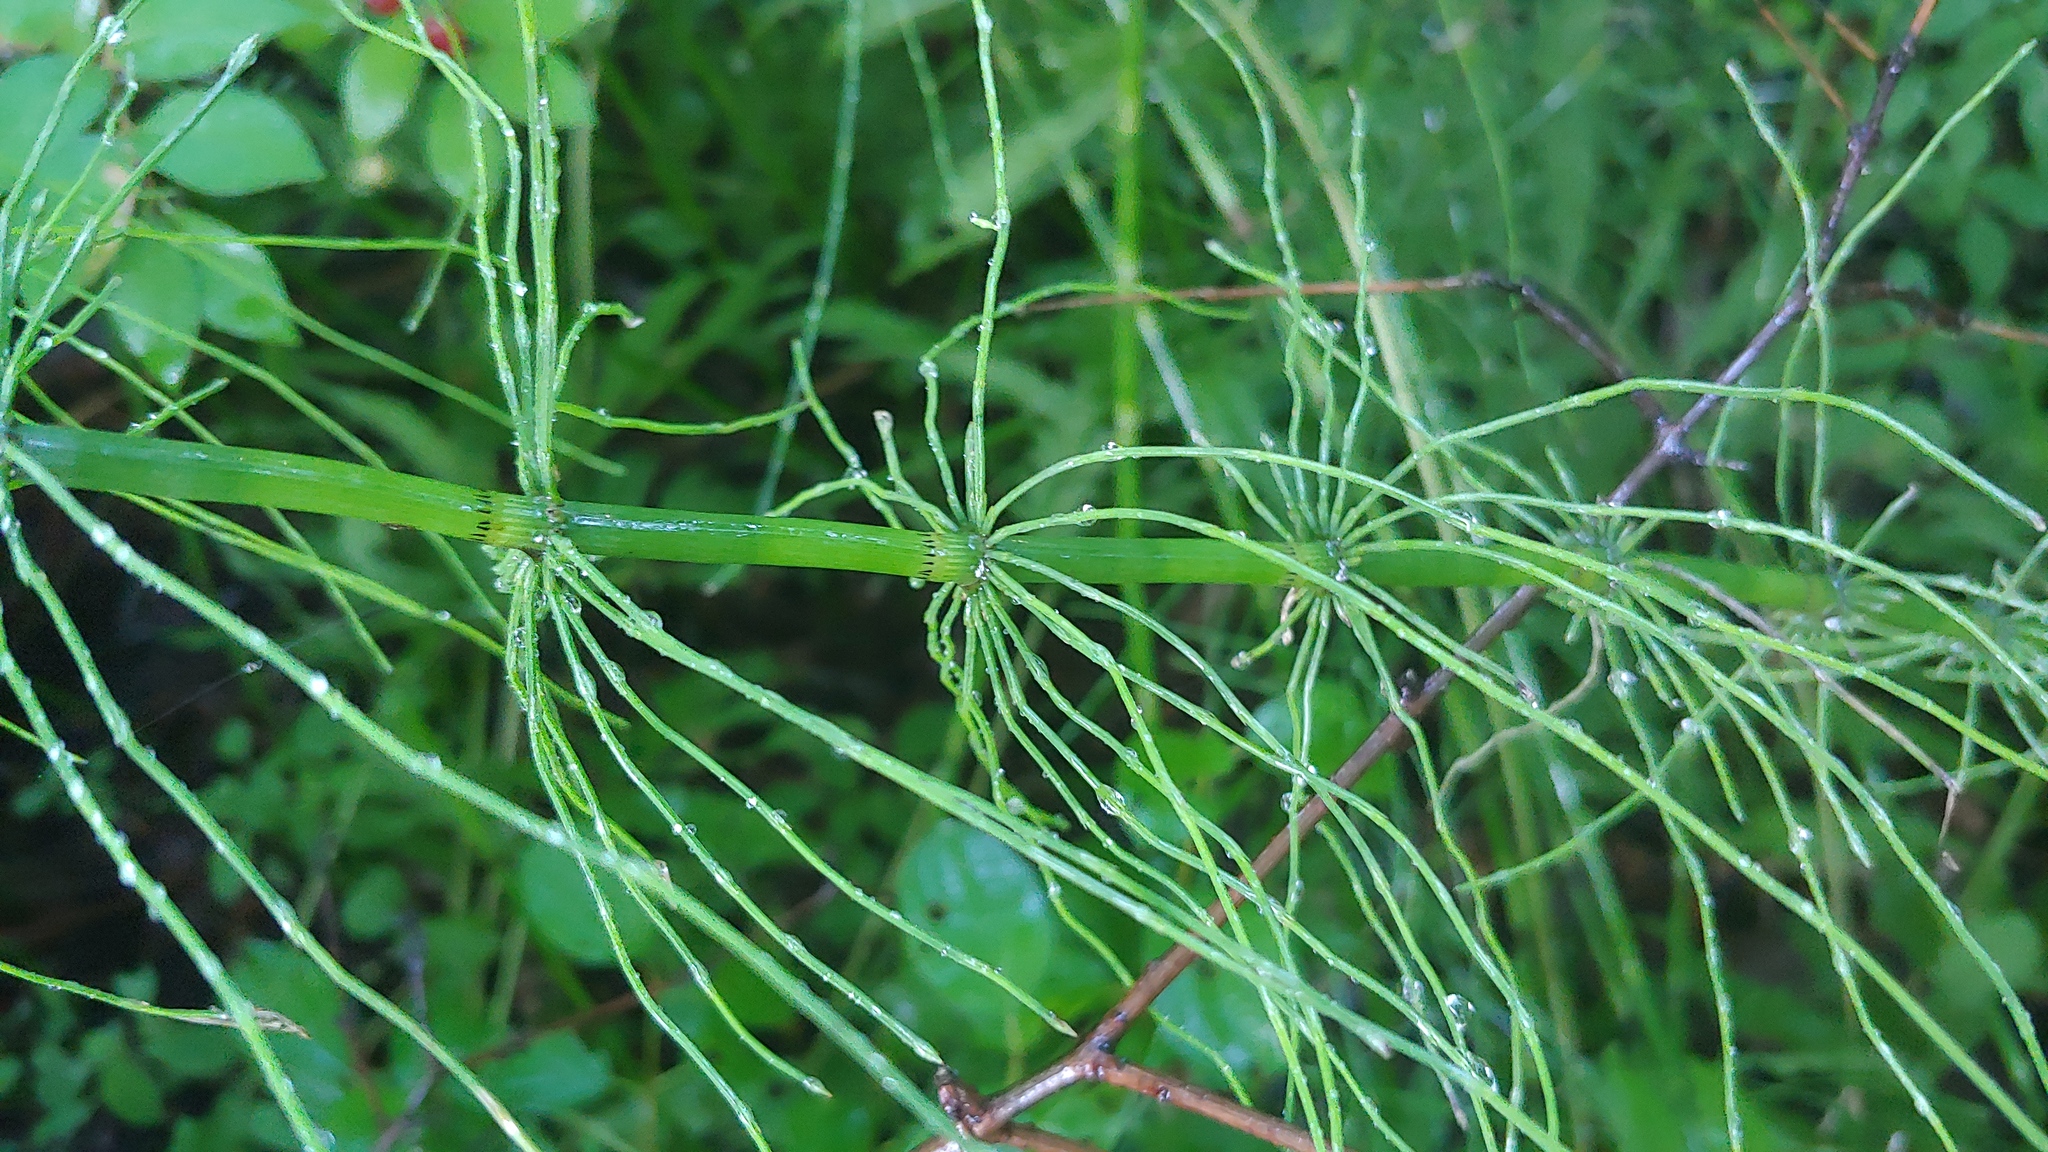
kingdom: Plantae
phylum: Tracheophyta
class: Polypodiopsida
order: Equisetales
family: Equisetaceae
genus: Equisetum
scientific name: Equisetum sylvaticum
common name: Wood horsetail
